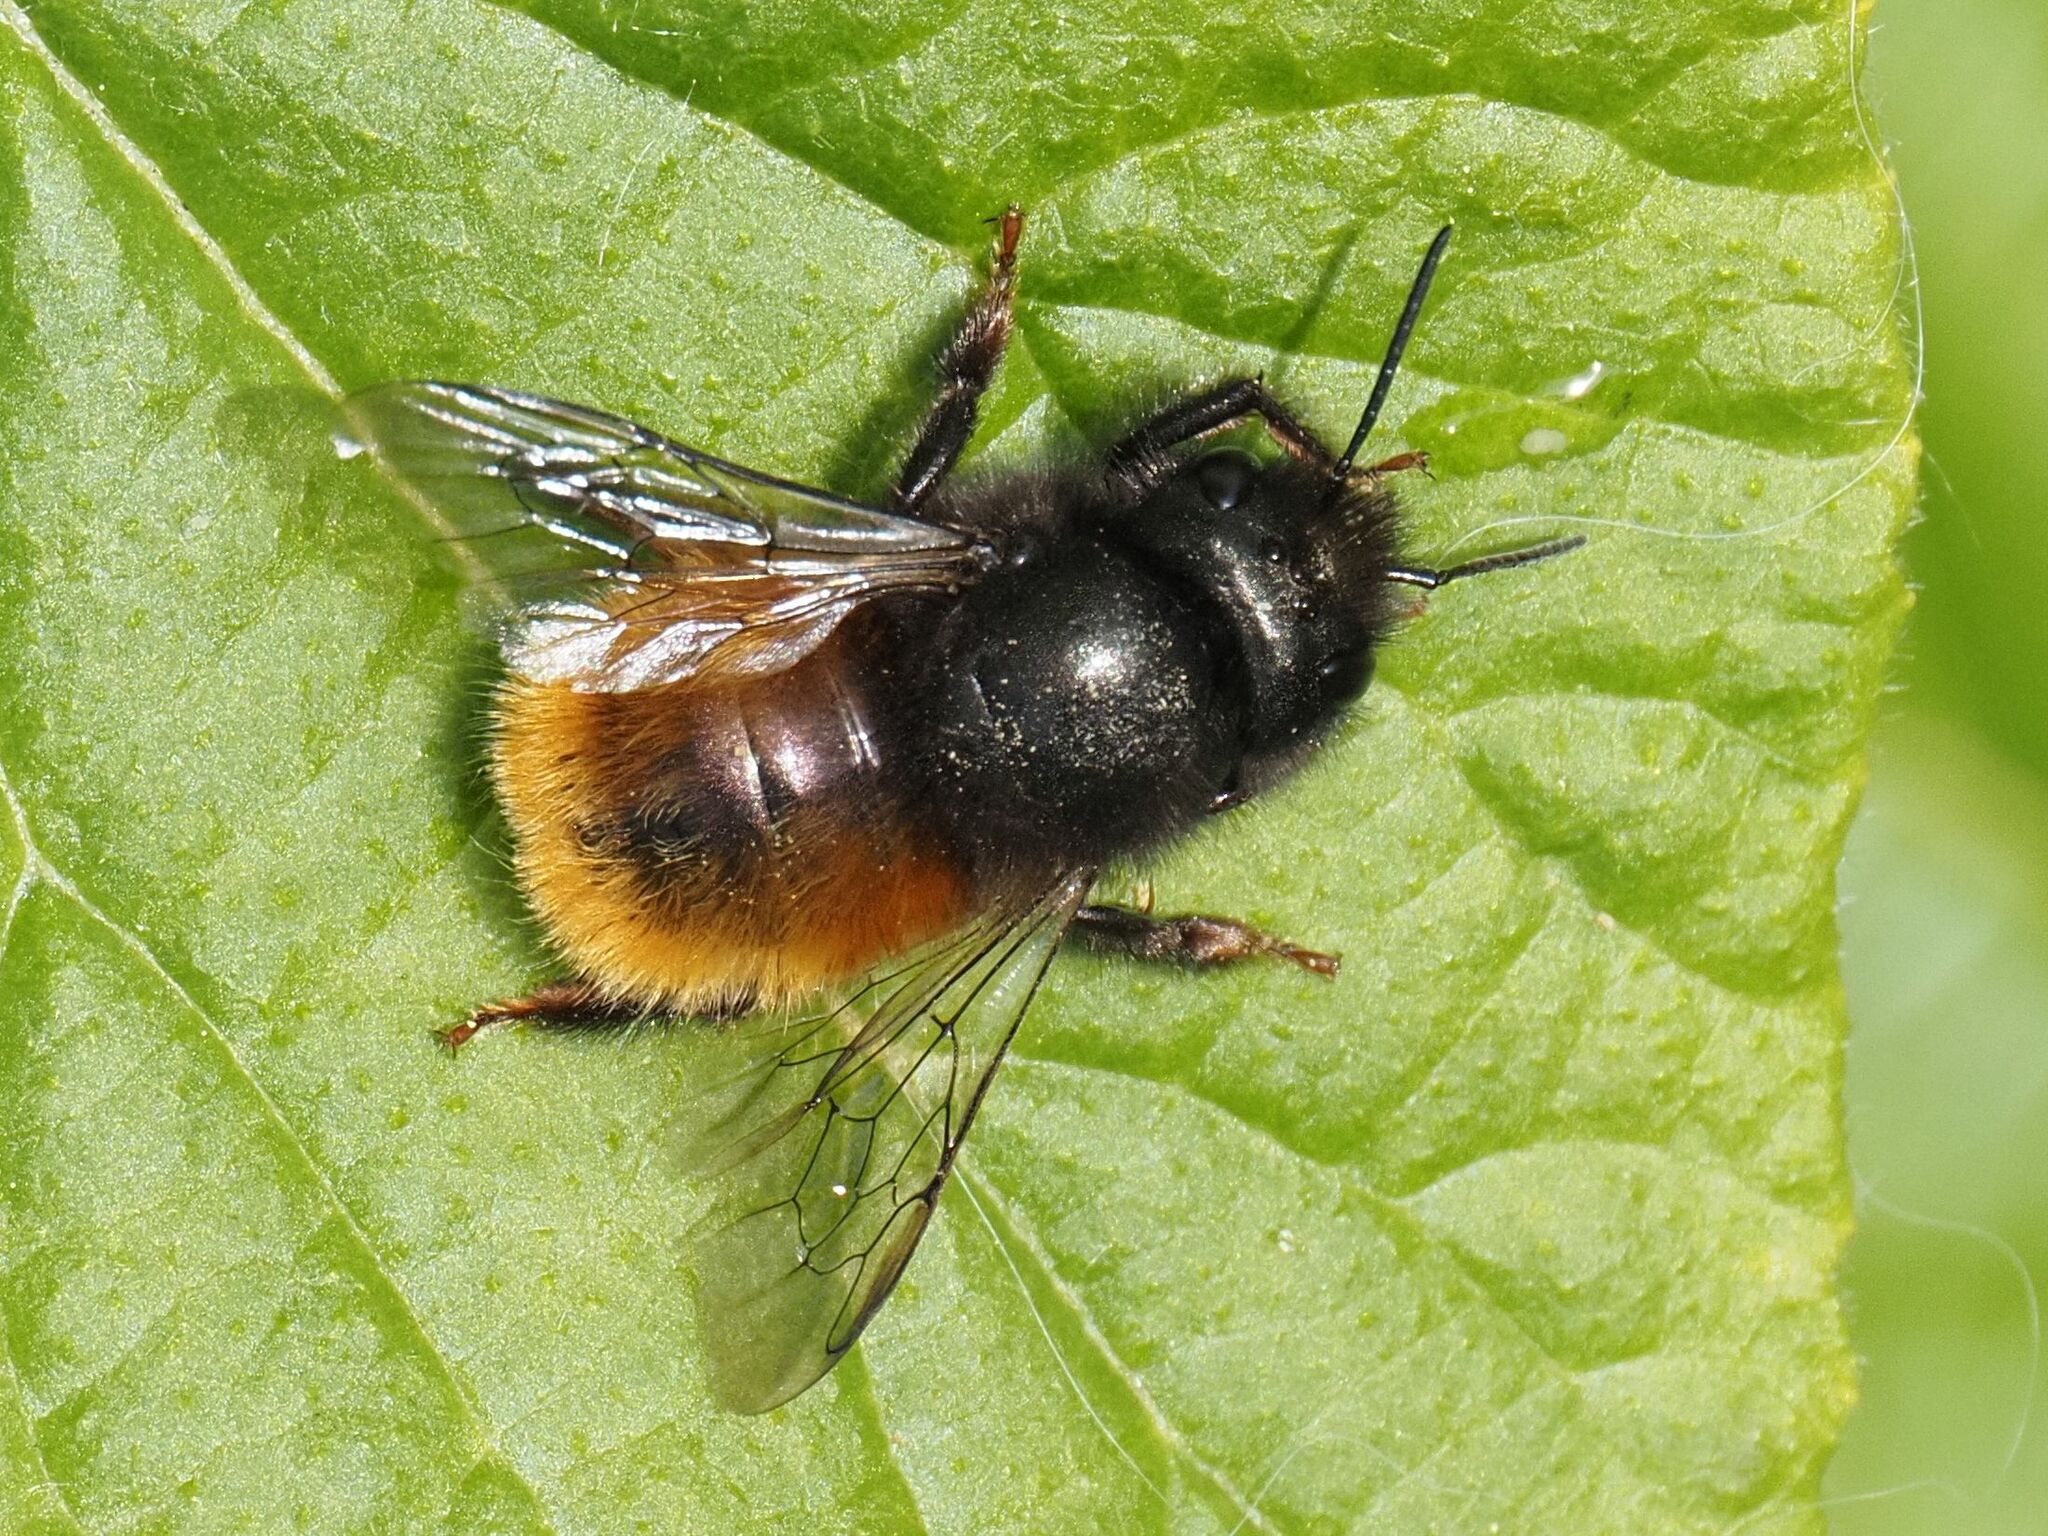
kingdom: Animalia
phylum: Arthropoda
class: Insecta
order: Hymenoptera
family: Megachilidae
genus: Osmia
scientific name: Osmia cornuta
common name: Mason bee
